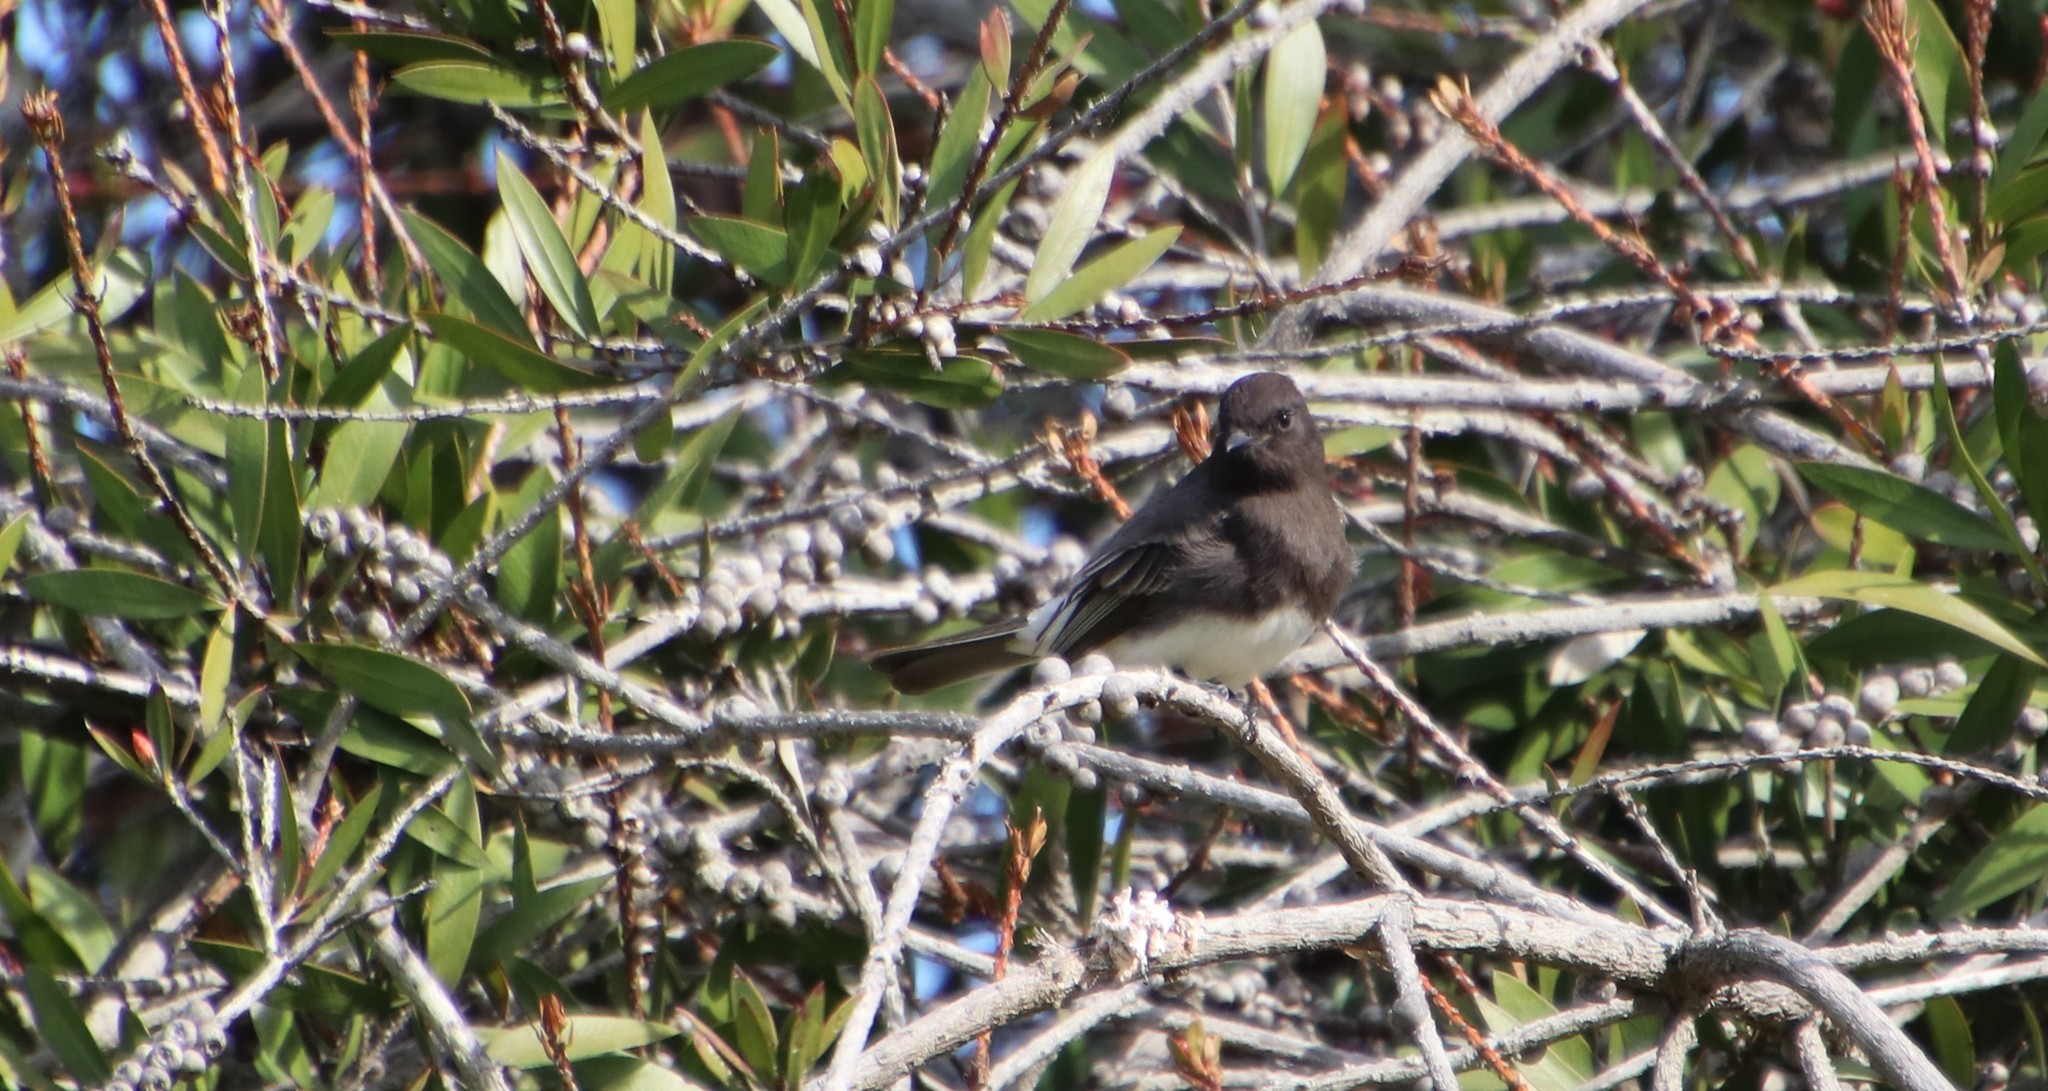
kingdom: Animalia
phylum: Chordata
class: Aves
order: Passeriformes
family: Tyrannidae
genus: Sayornis
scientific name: Sayornis nigricans
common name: Black phoebe
